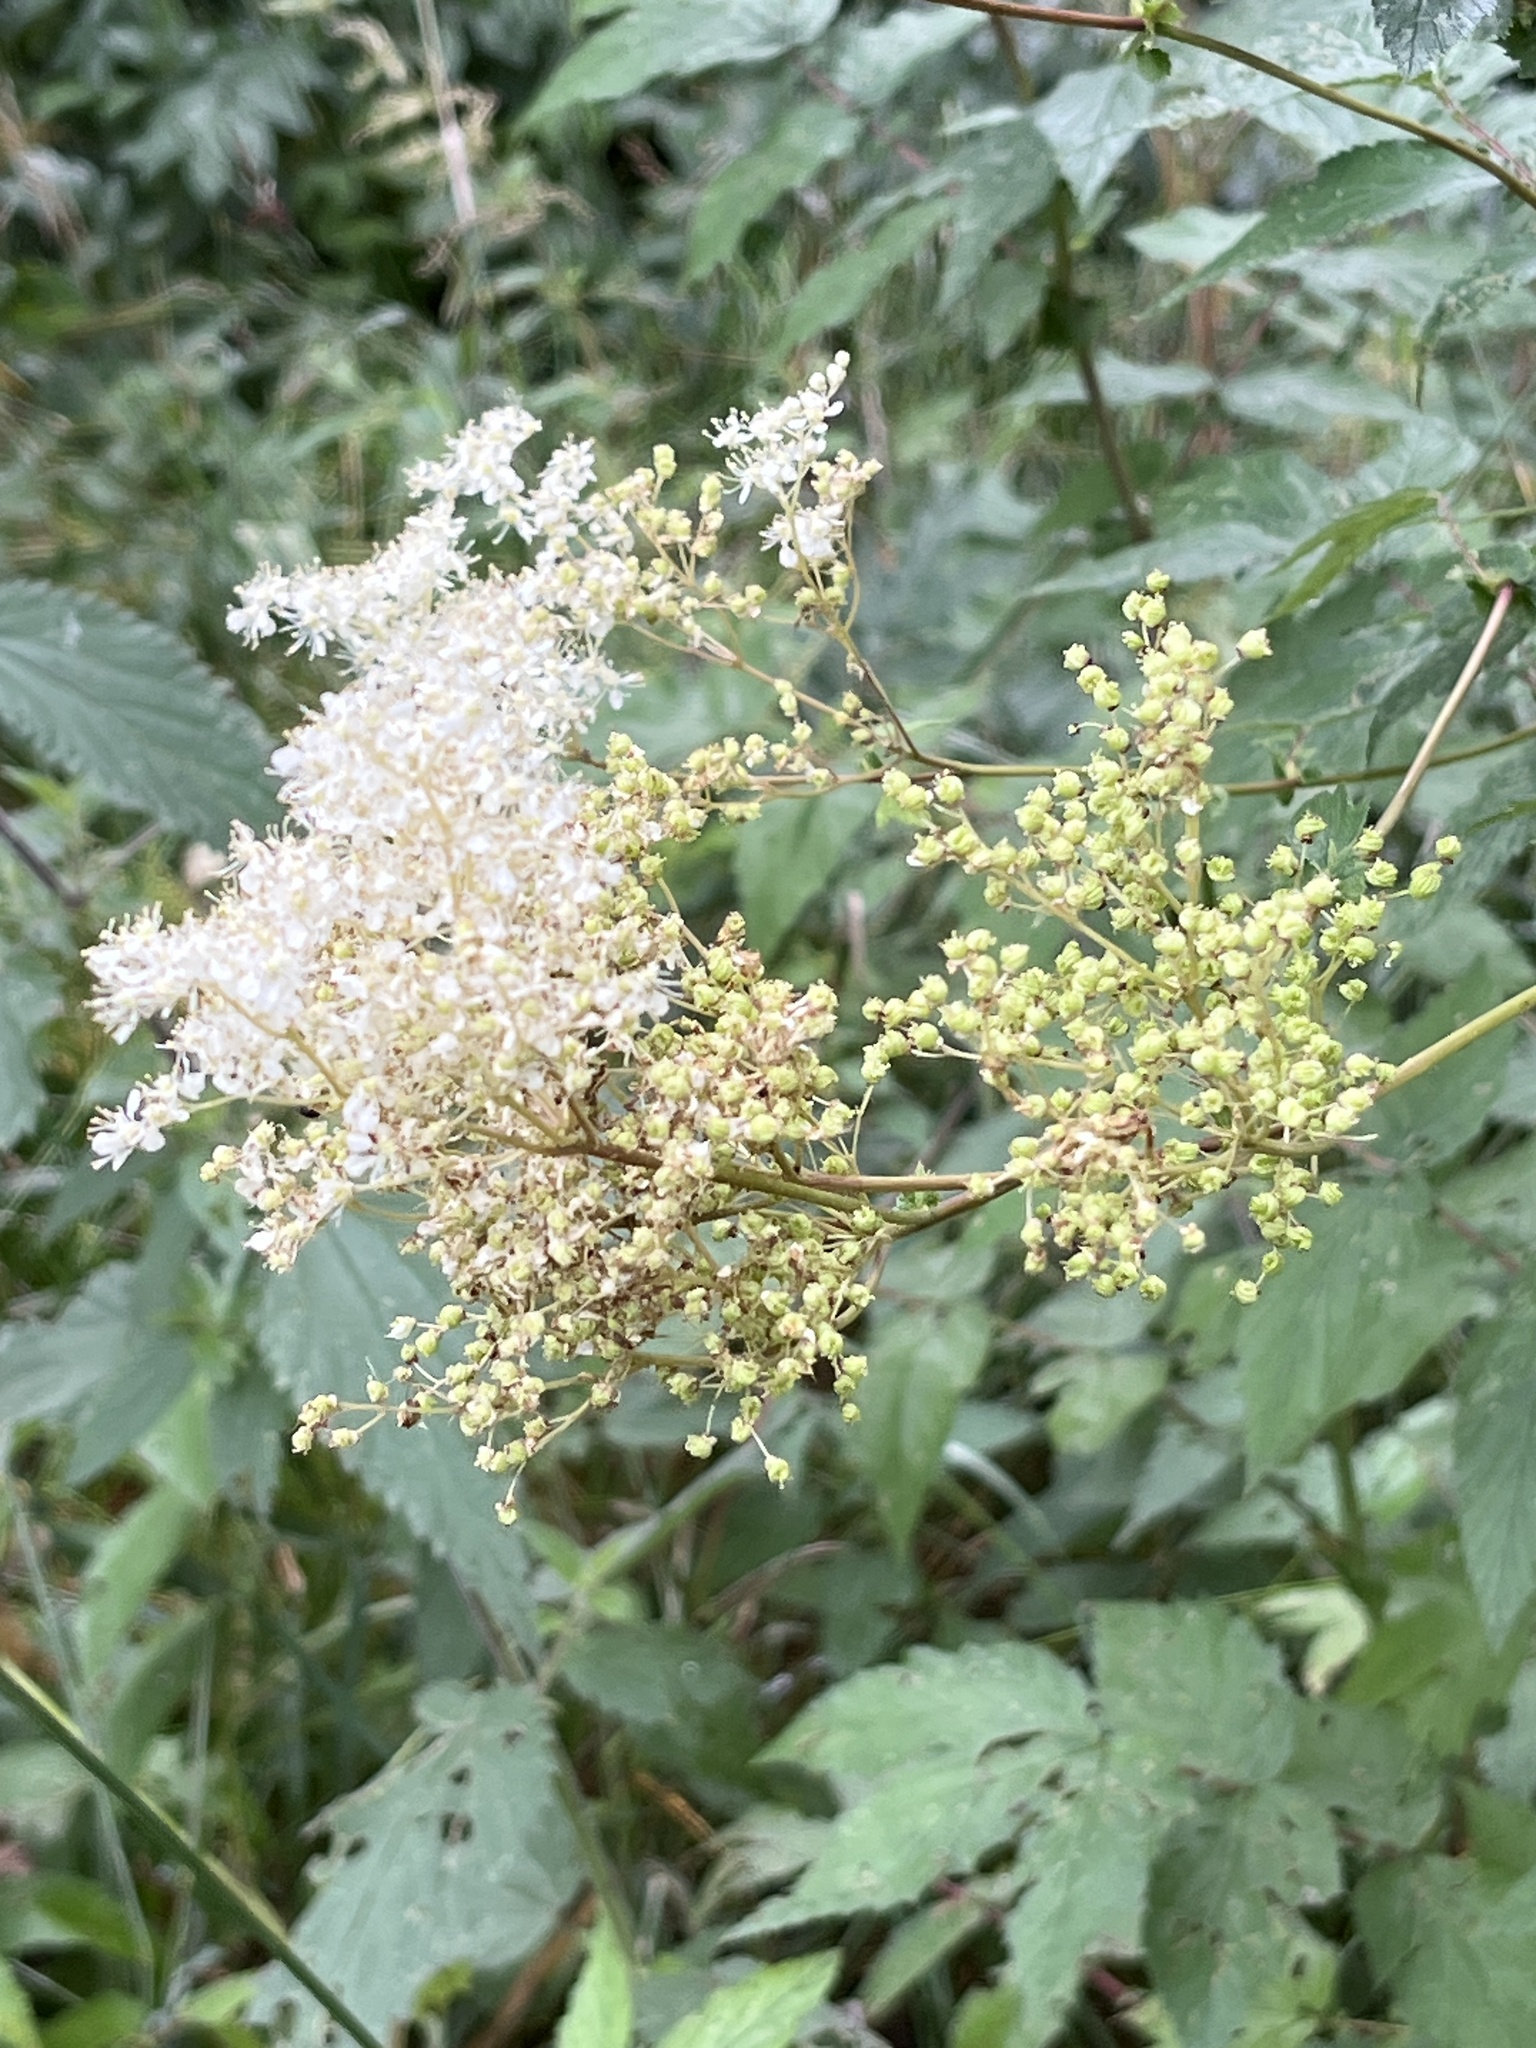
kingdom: Plantae
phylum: Tracheophyta
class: Magnoliopsida
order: Rosales
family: Rosaceae
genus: Filipendula
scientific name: Filipendula ulmaria
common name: Meadowsweet
